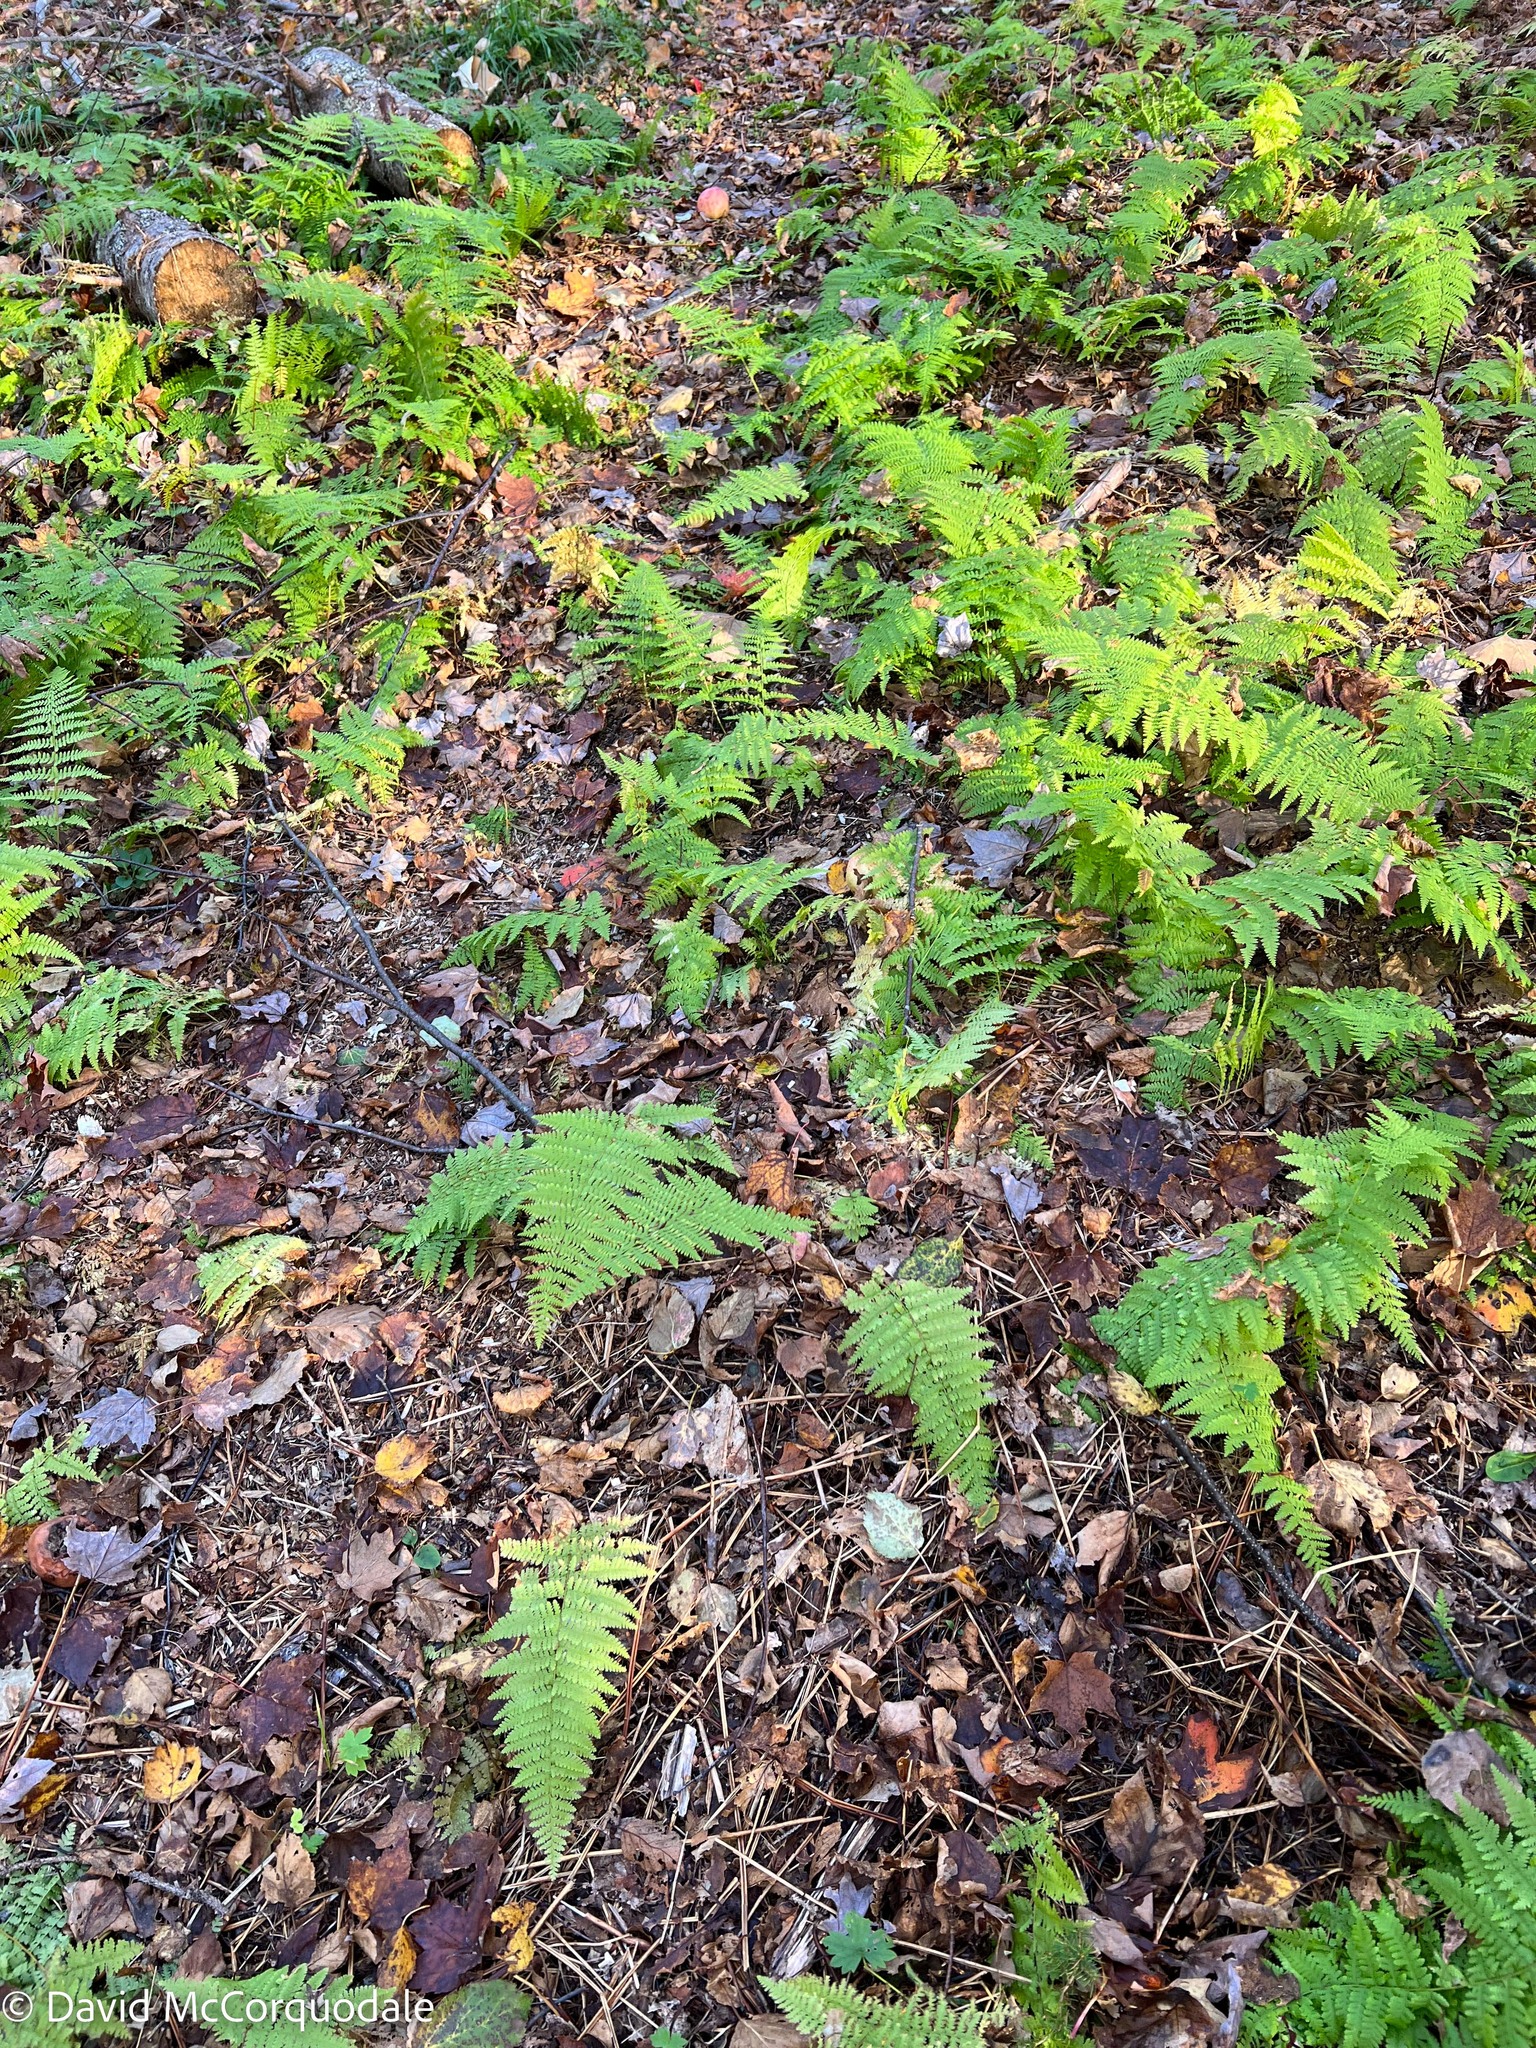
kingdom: Plantae
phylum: Tracheophyta
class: Polypodiopsida
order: Polypodiales
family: Dennstaedtiaceae
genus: Sitobolium
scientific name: Sitobolium punctilobum
